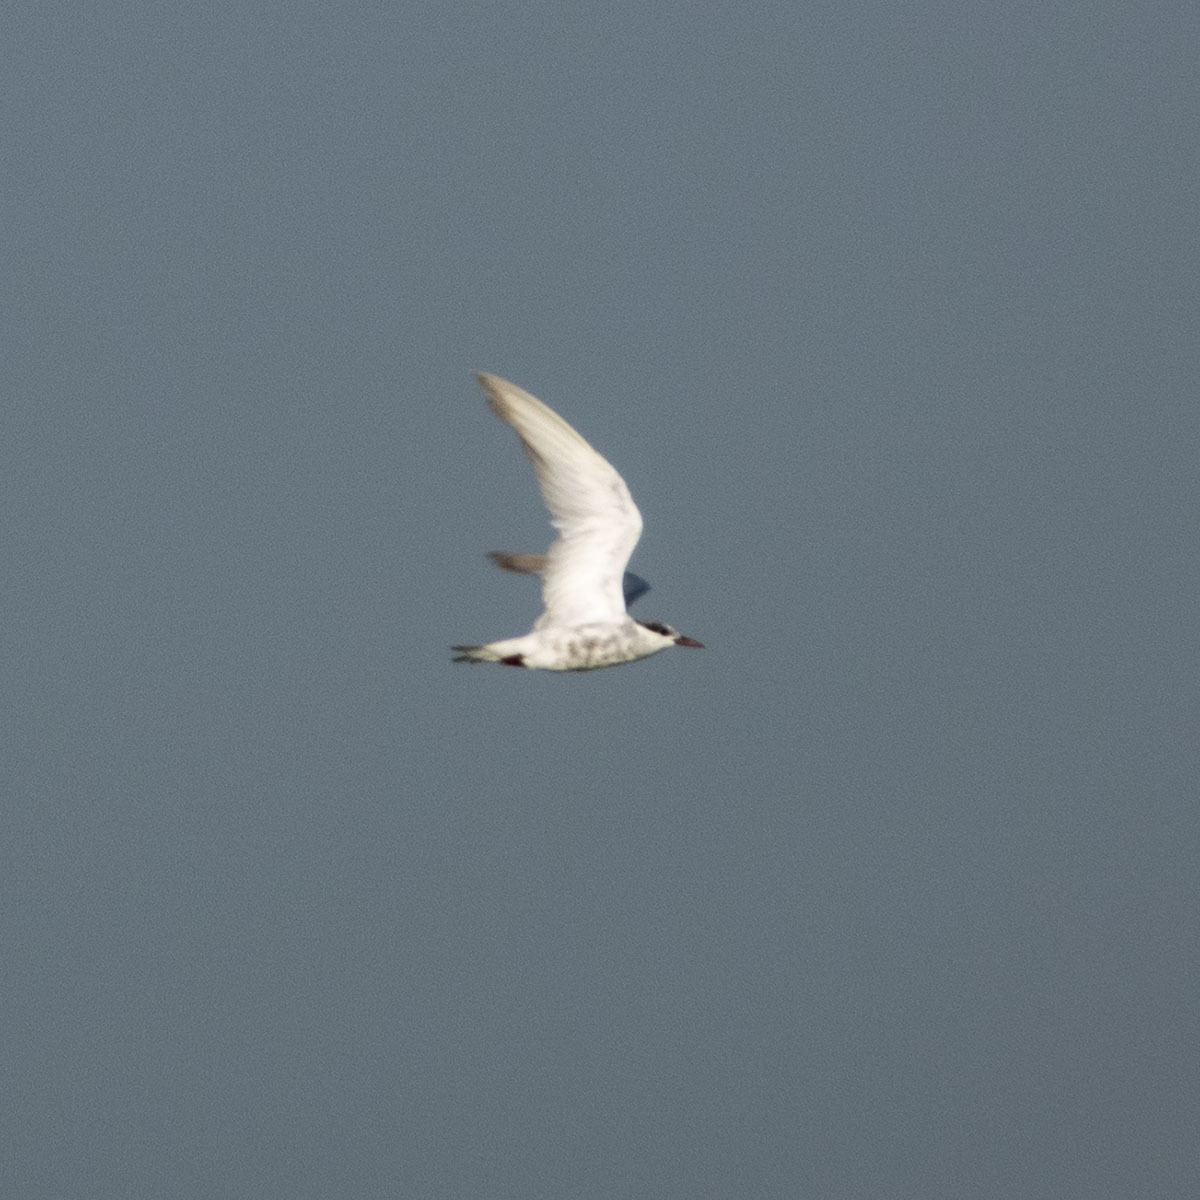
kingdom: Animalia
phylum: Chordata
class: Aves
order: Charadriiformes
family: Laridae
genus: Chlidonias
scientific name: Chlidonias hybrida
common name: Whiskered tern
